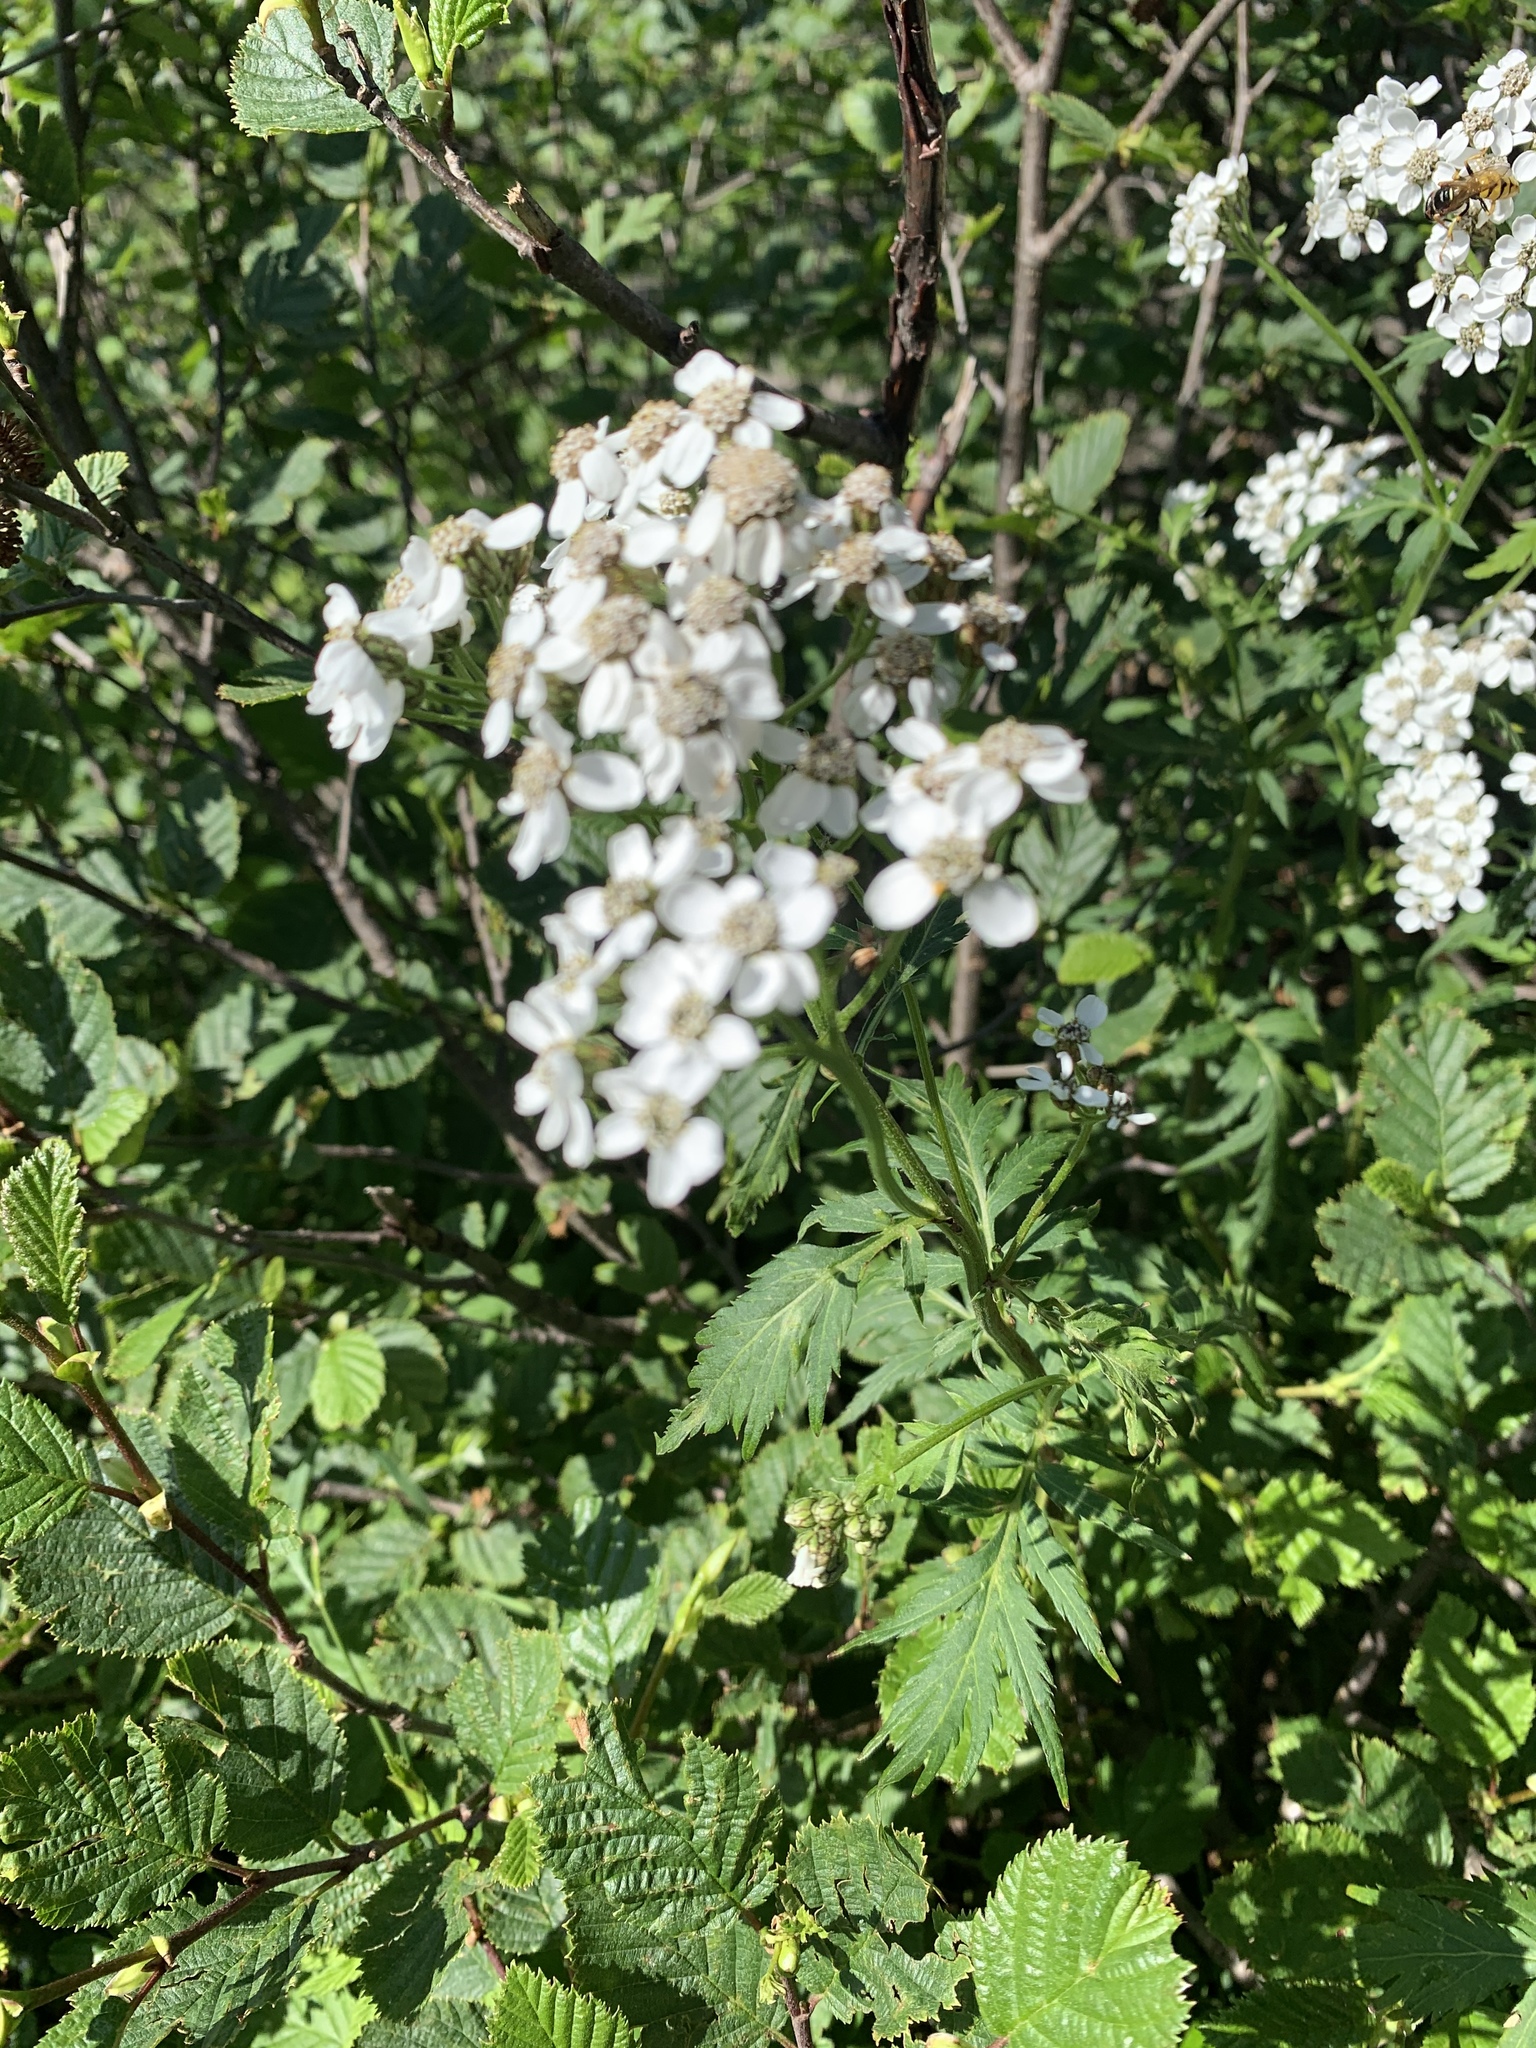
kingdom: Plantae
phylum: Tracheophyta
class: Magnoliopsida
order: Asterales
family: Asteraceae
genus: Achillea
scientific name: Achillea macrophylla
